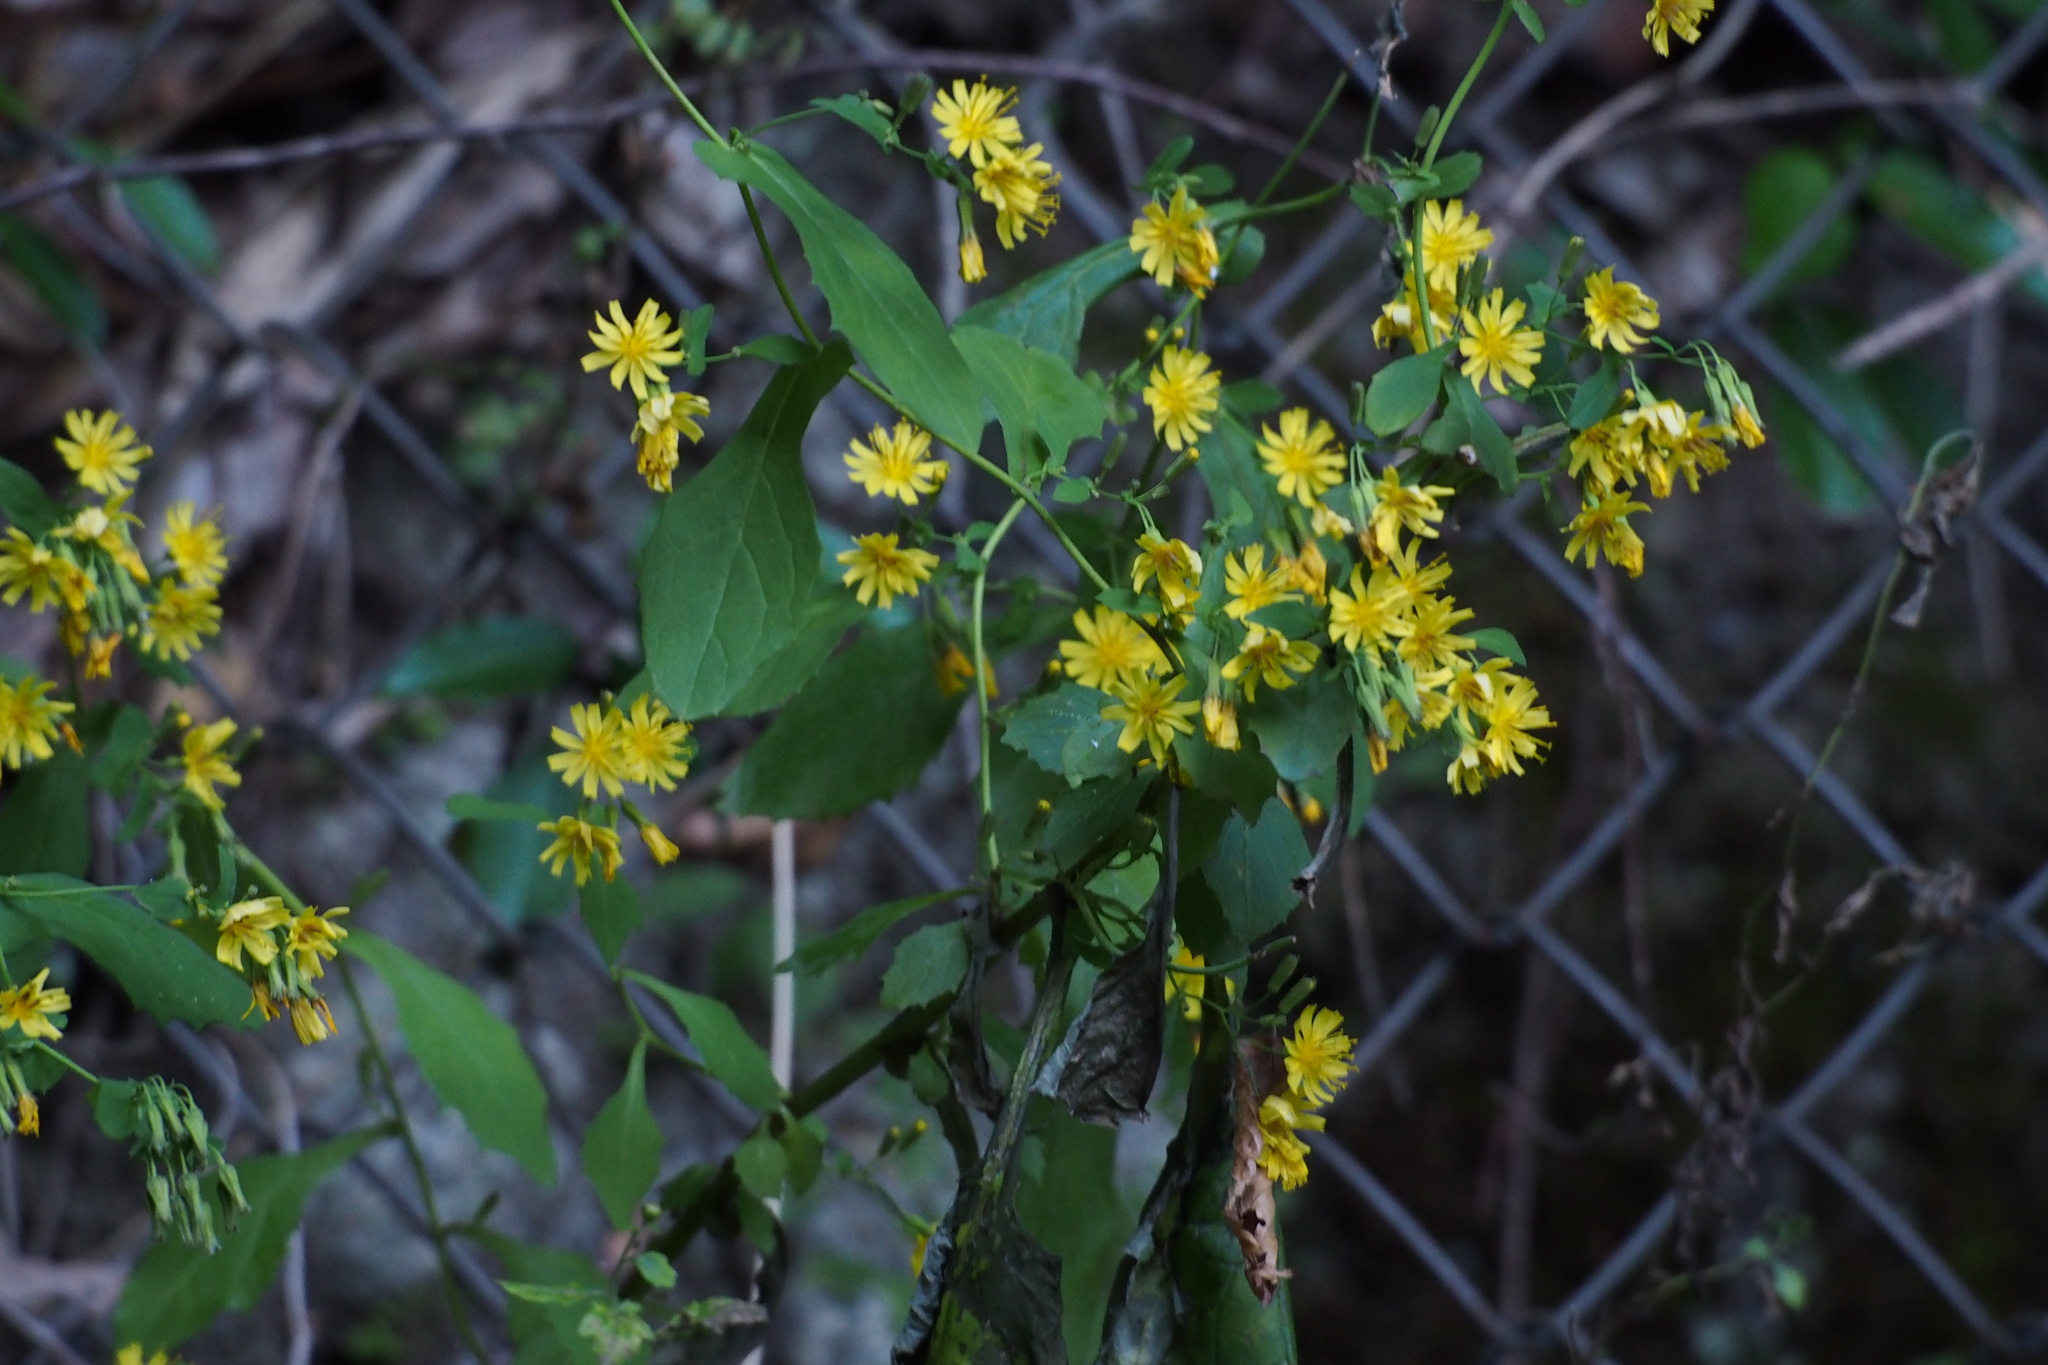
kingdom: Plantae
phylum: Tracheophyta
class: Magnoliopsida
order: Asterales
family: Asteraceae
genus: Crepidiastrum
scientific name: Crepidiastrum denticulatum
